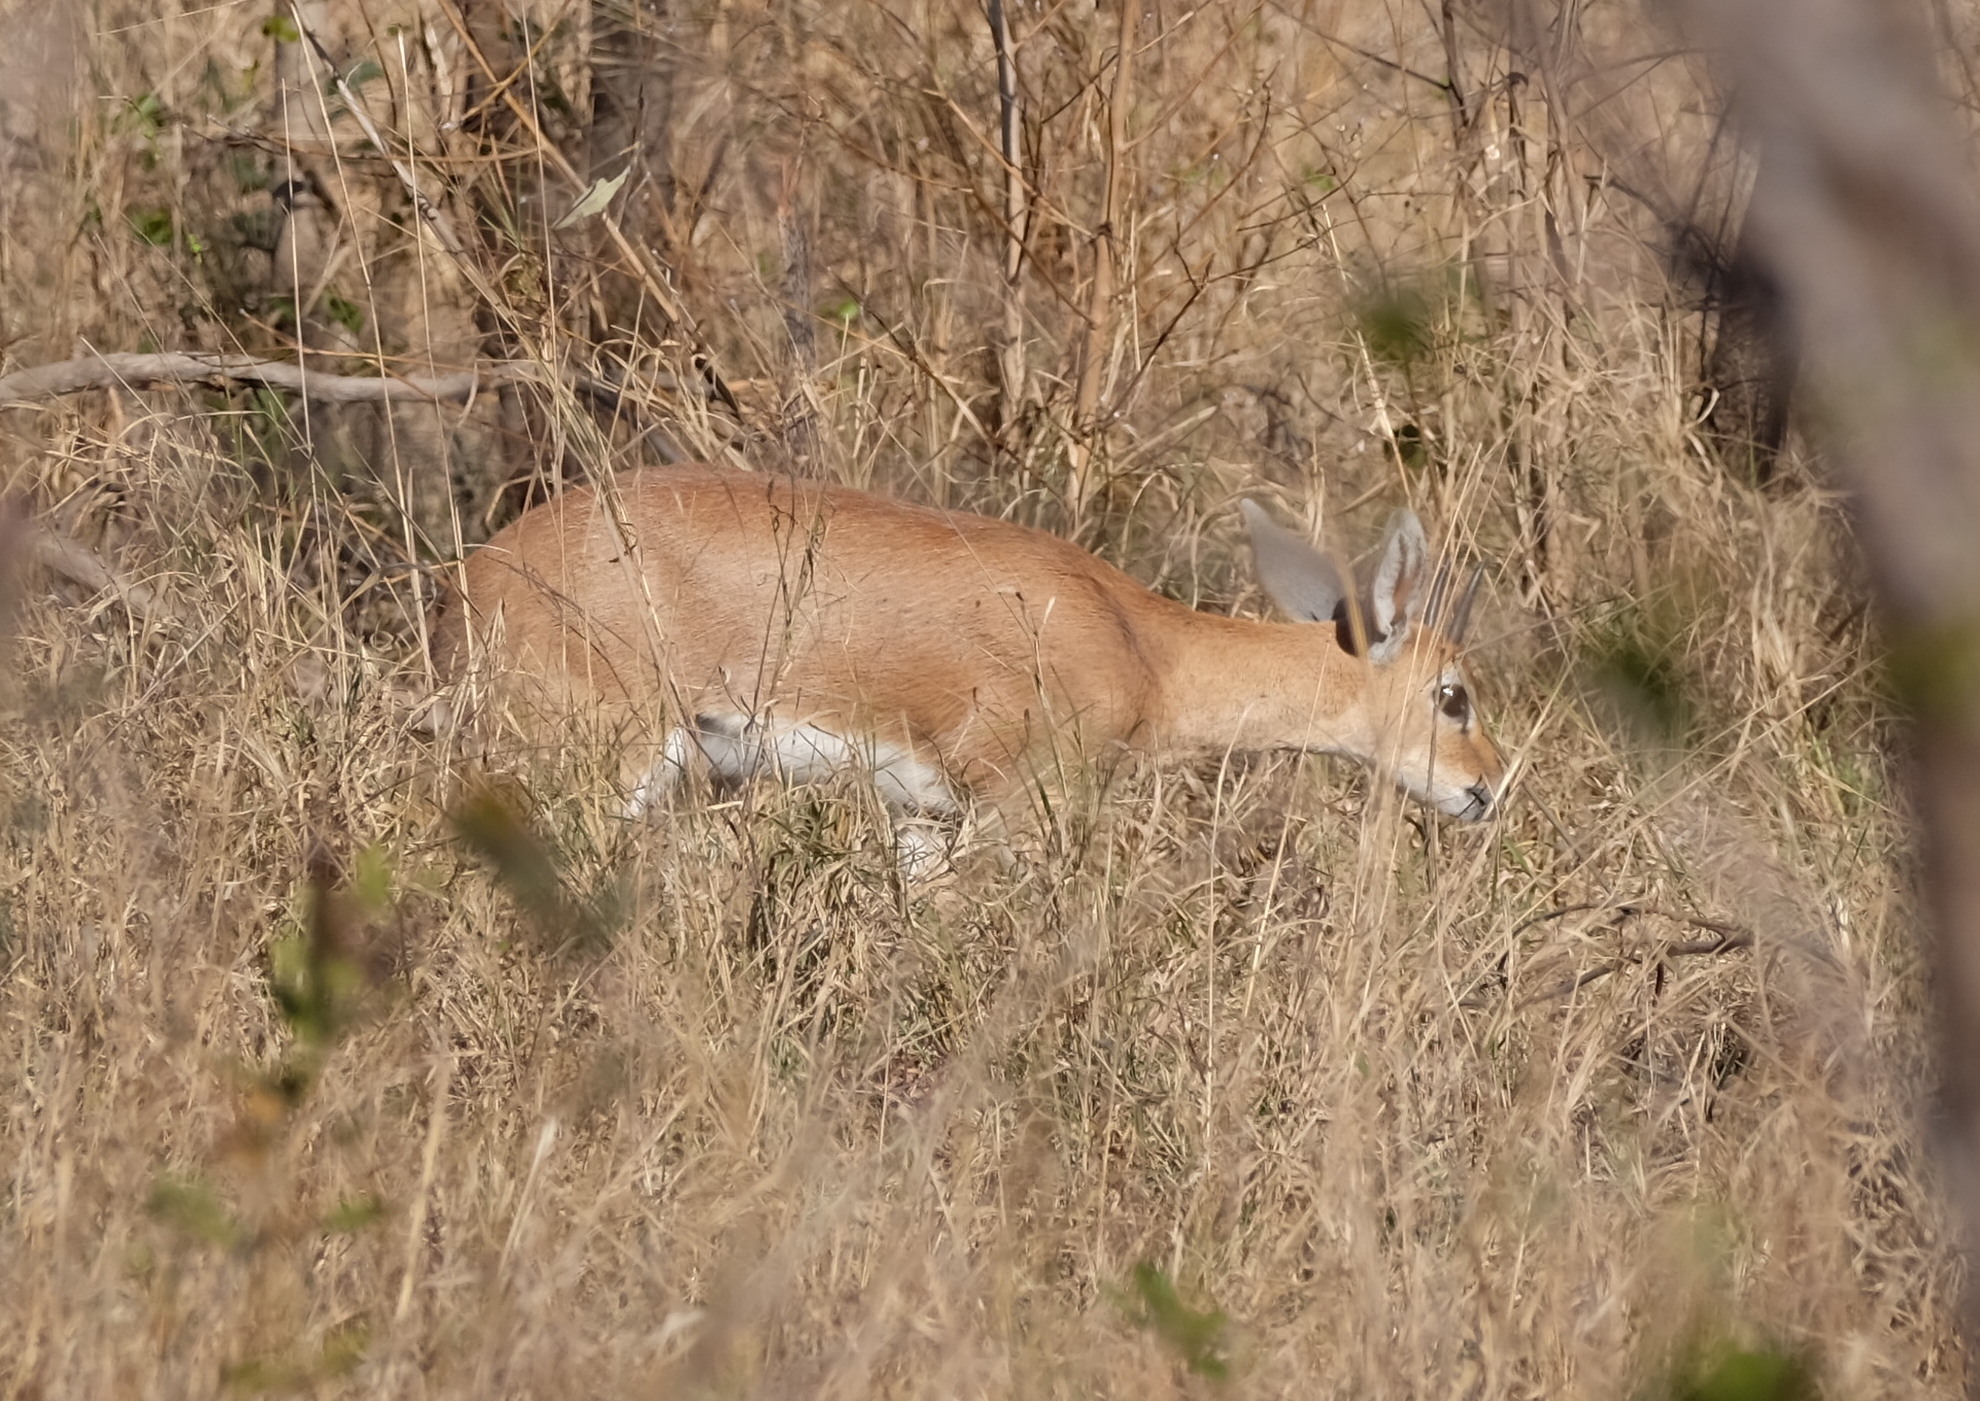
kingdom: Animalia
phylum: Chordata
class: Mammalia
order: Artiodactyla
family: Bovidae
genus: Raphicerus
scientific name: Raphicerus campestris
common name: Steenbok
